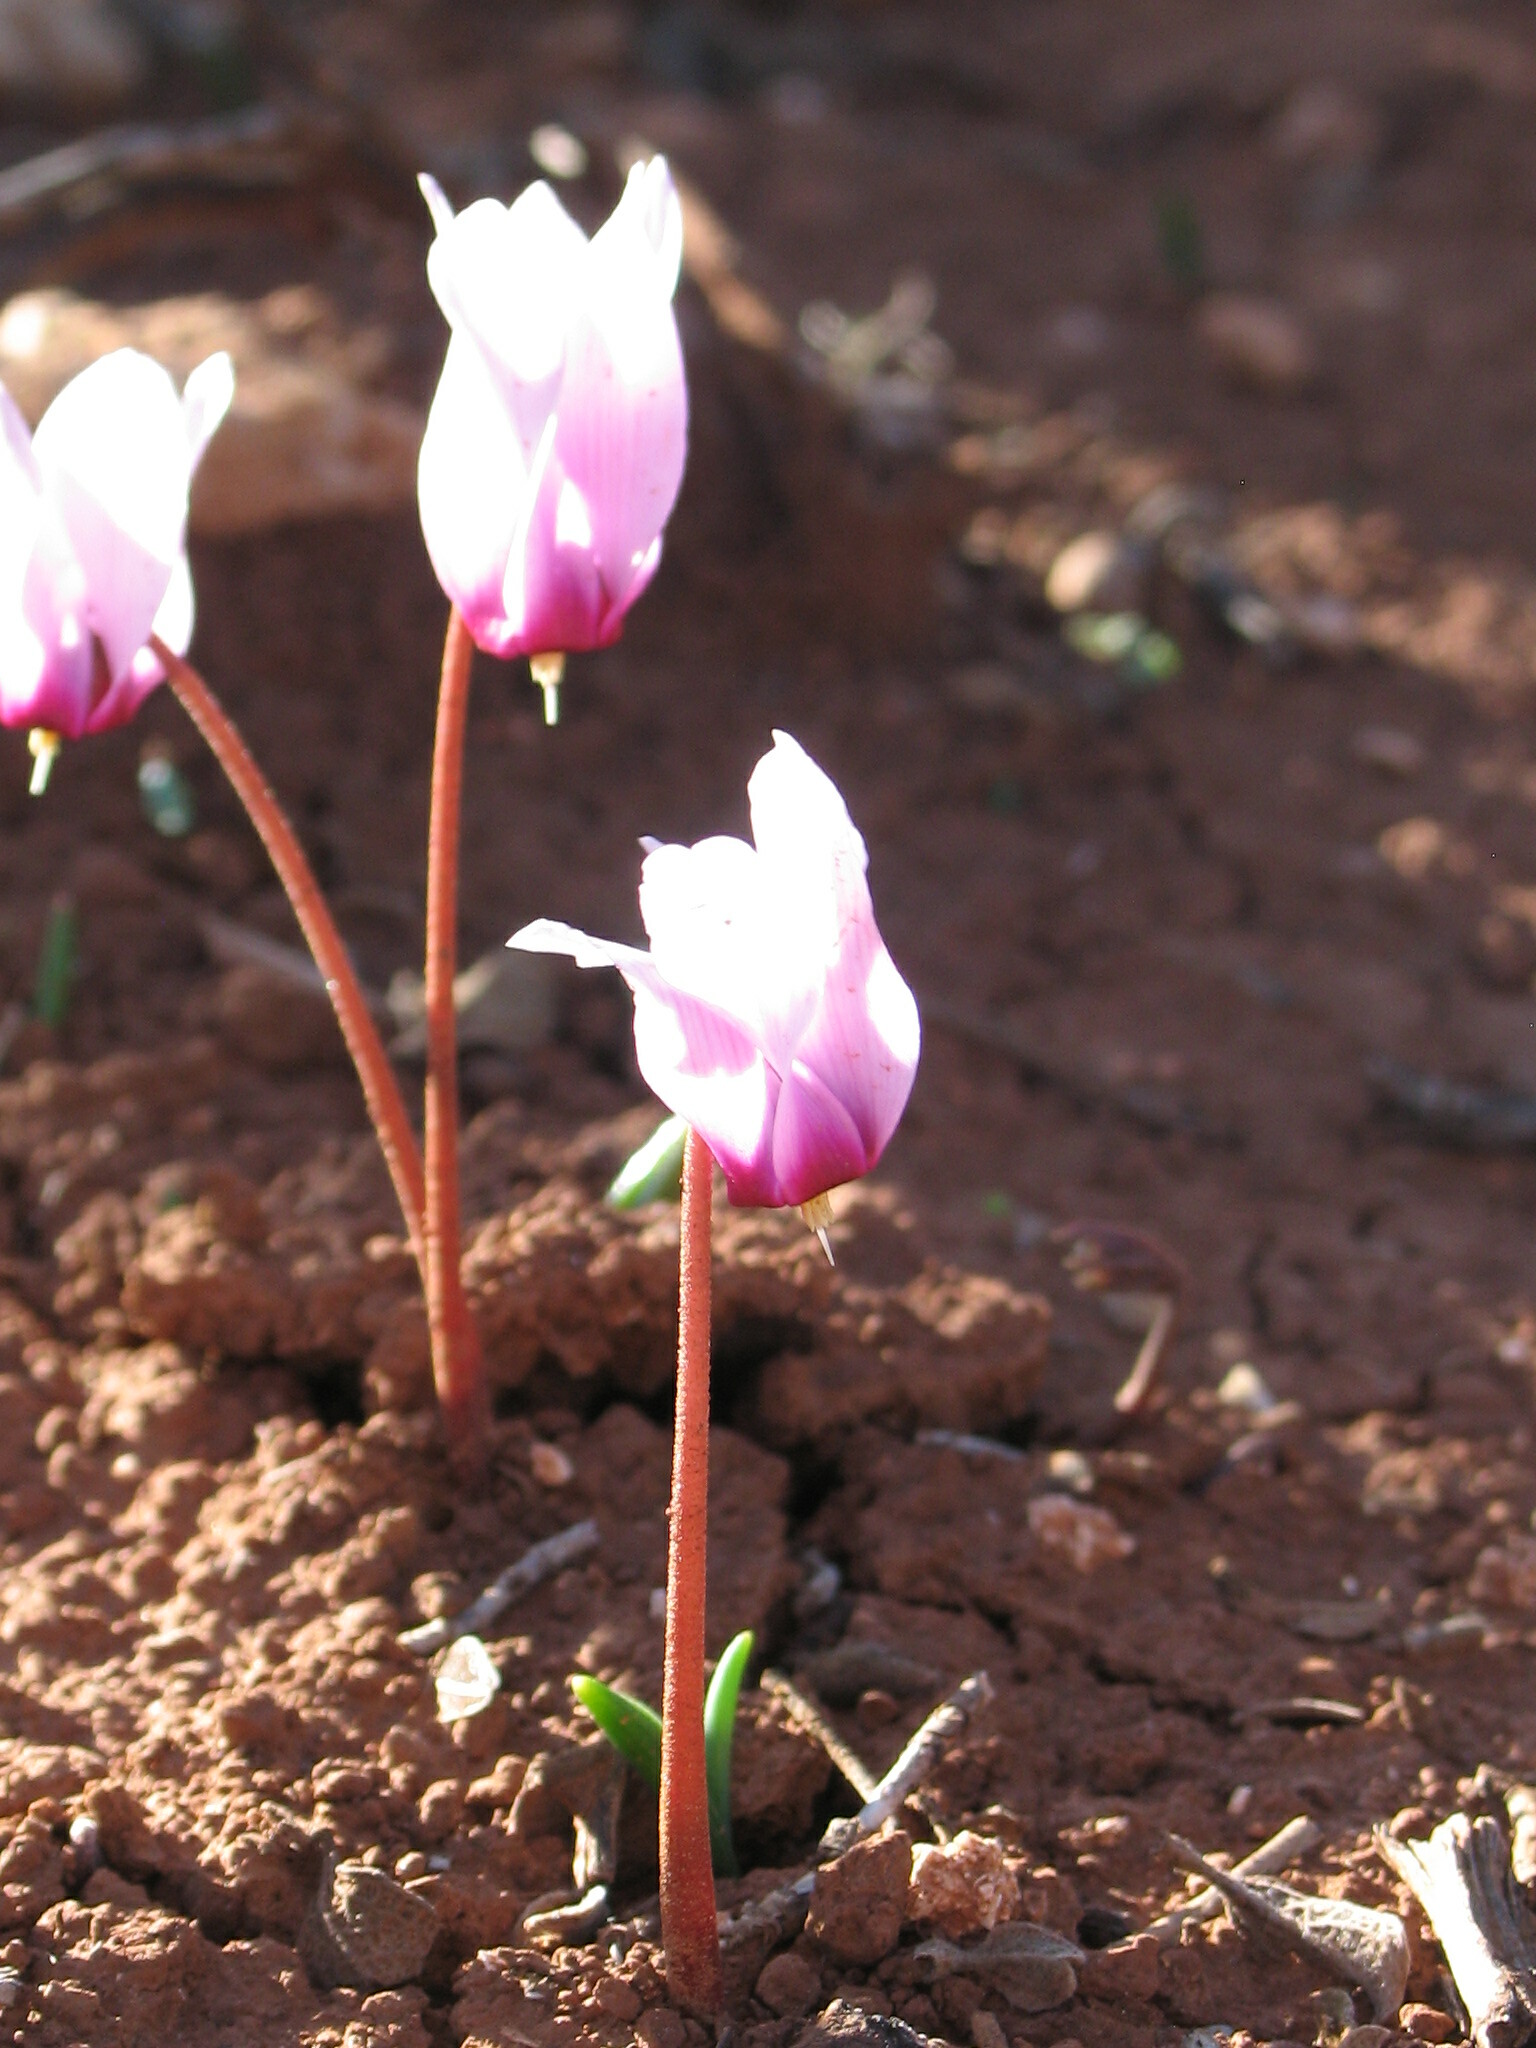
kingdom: Plantae
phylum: Tracheophyta
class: Magnoliopsida
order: Ericales
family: Primulaceae
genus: Cyclamen
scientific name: Cyclamen rohlfsianum
